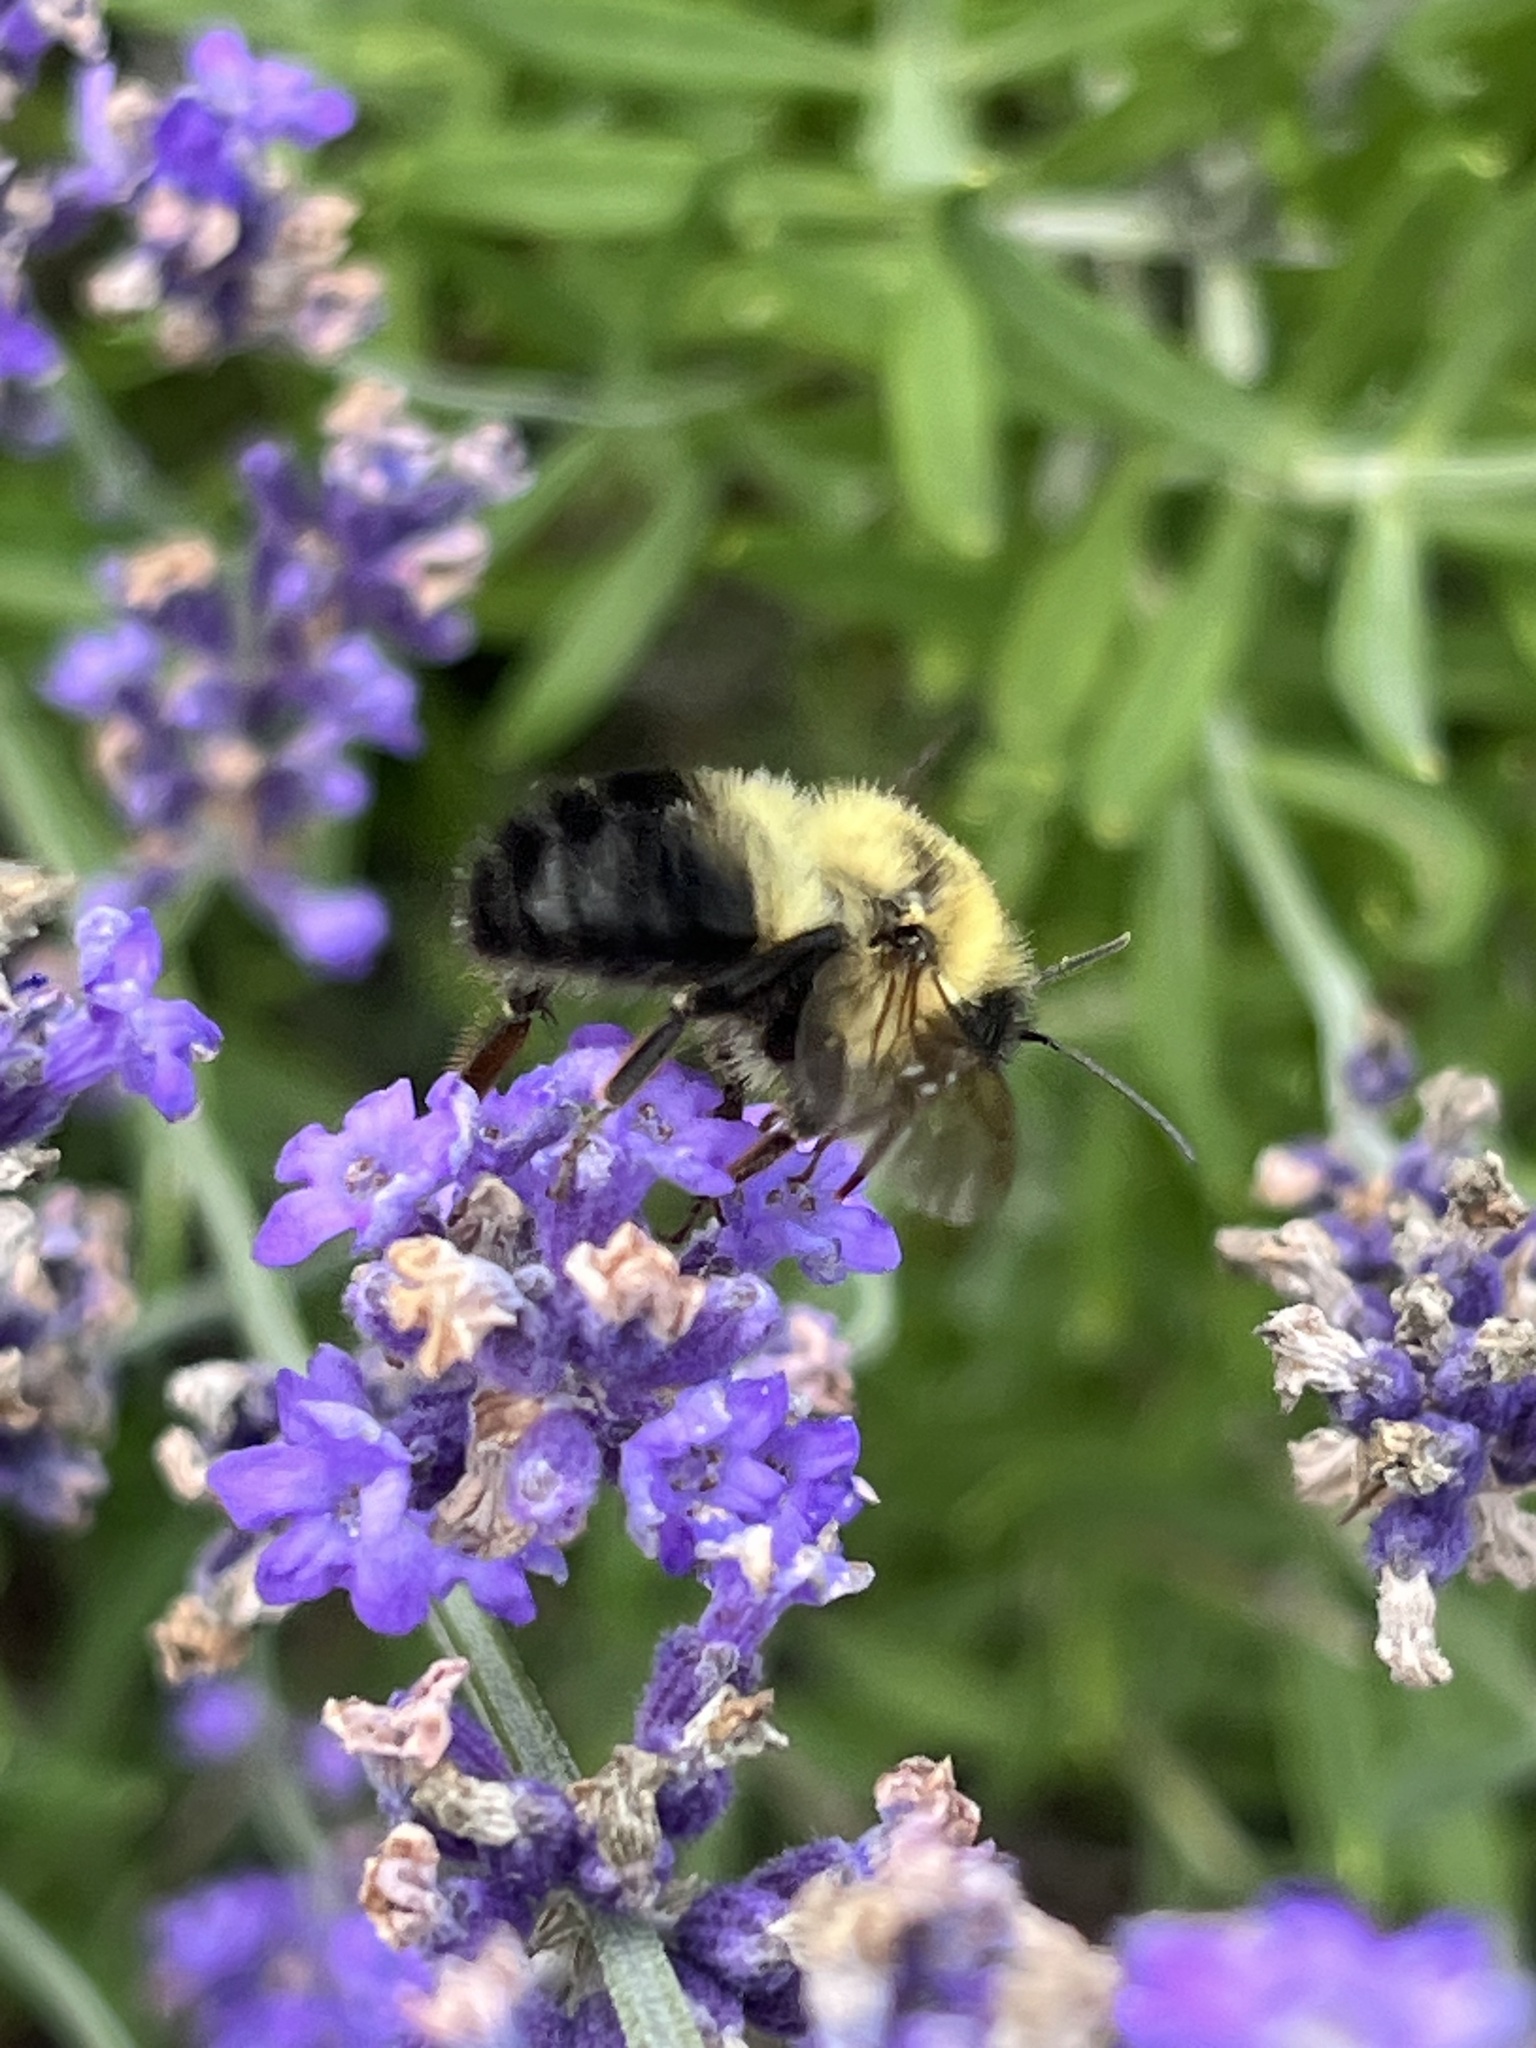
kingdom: Animalia
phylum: Arthropoda
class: Insecta
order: Hymenoptera
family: Apidae
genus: Bombus
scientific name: Bombus bimaculatus
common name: Two-spotted bumble bee
